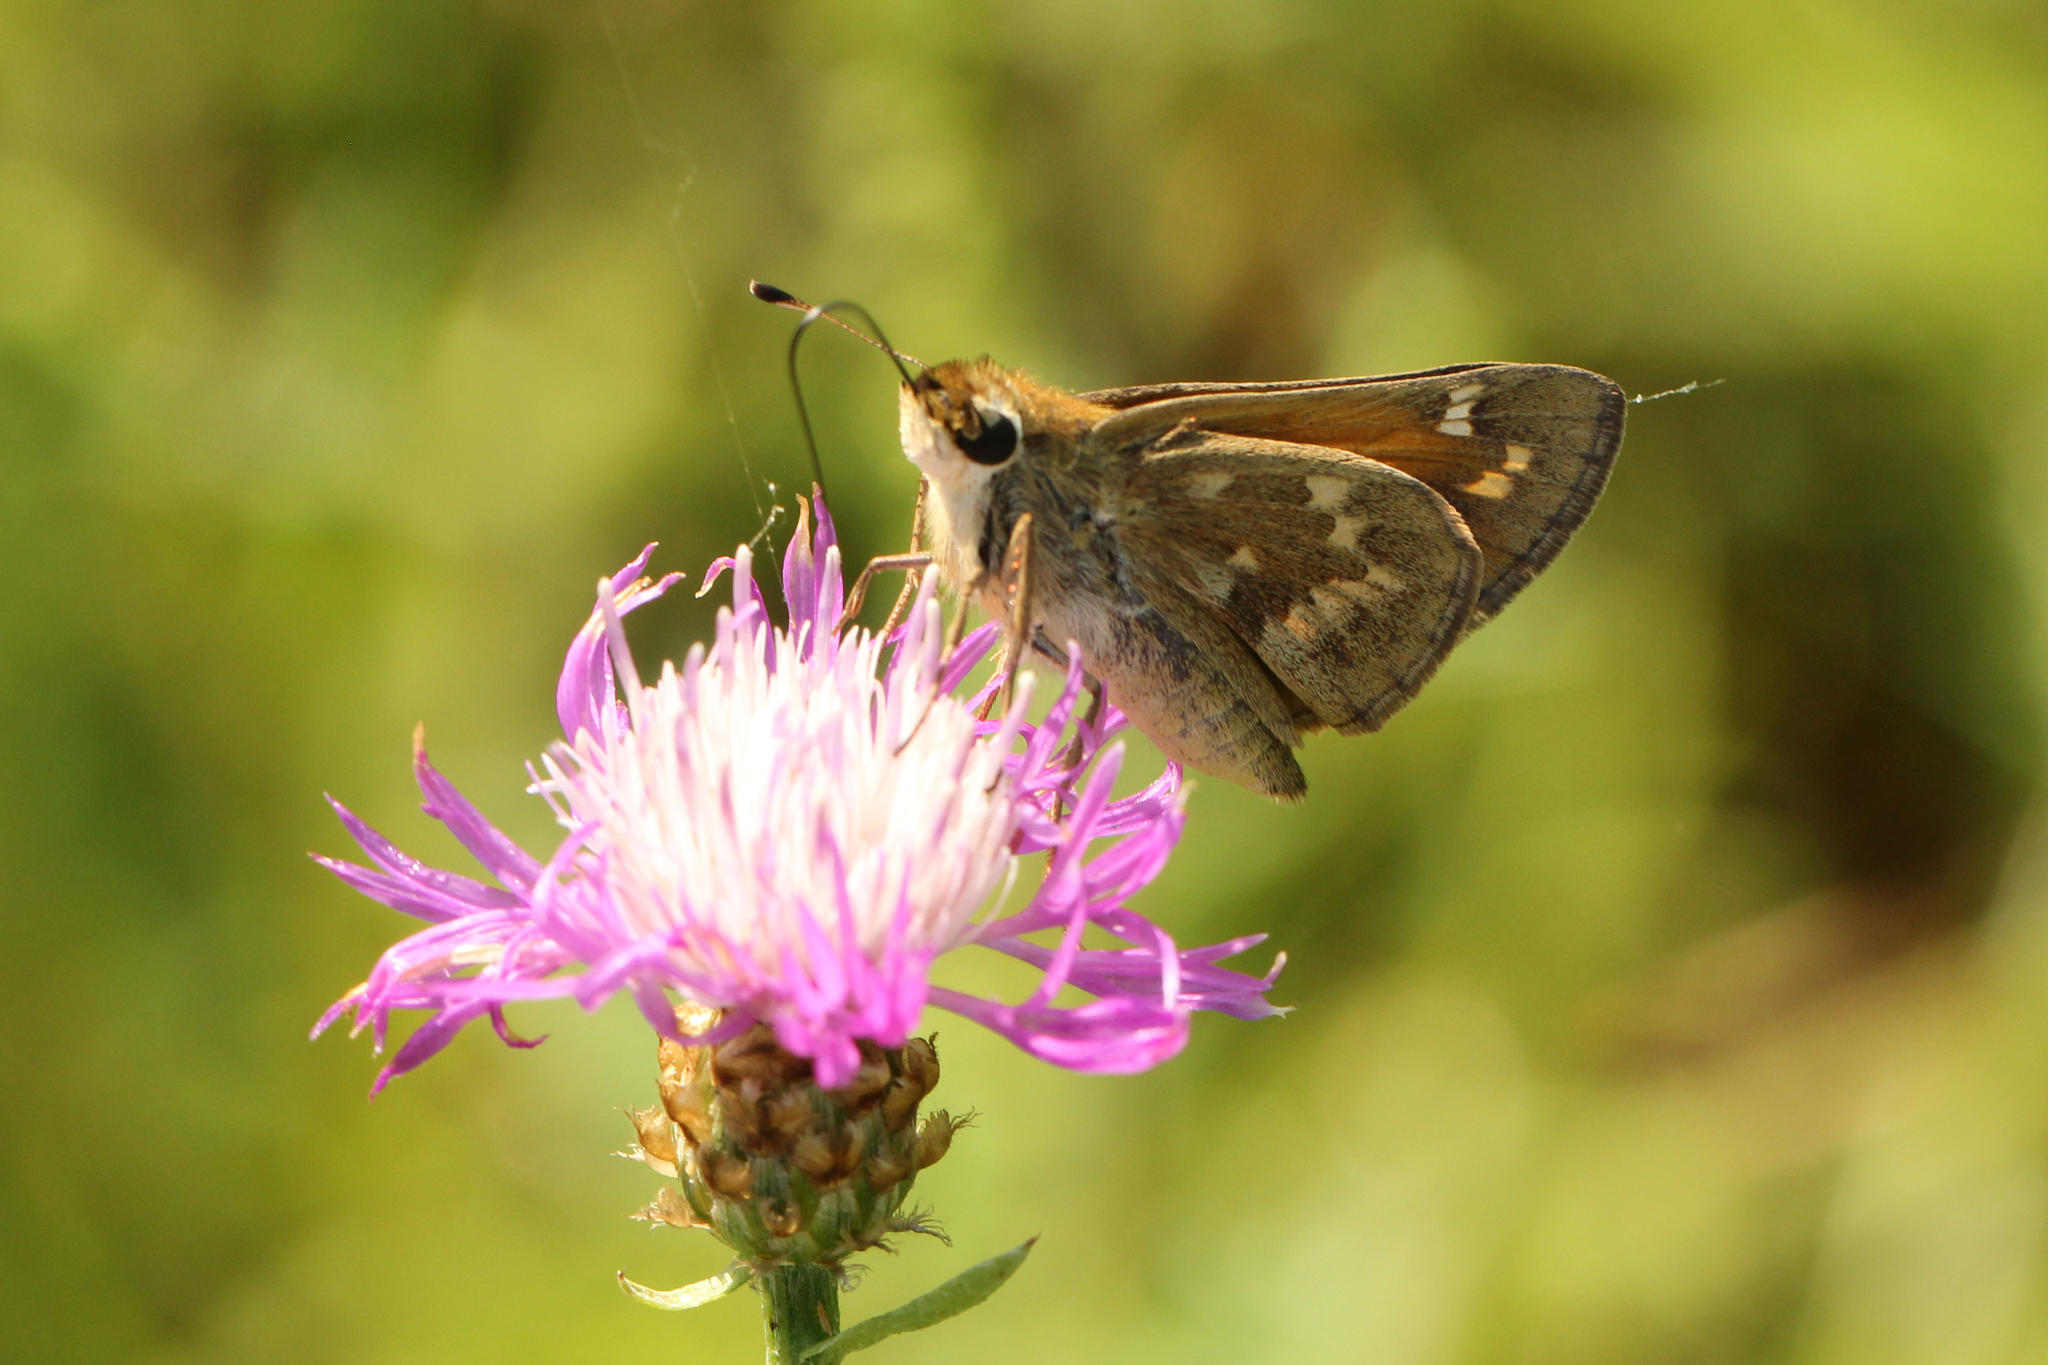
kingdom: Animalia
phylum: Arthropoda
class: Insecta
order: Lepidoptera
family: Hesperiidae
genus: Atalopedes
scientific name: Atalopedes
